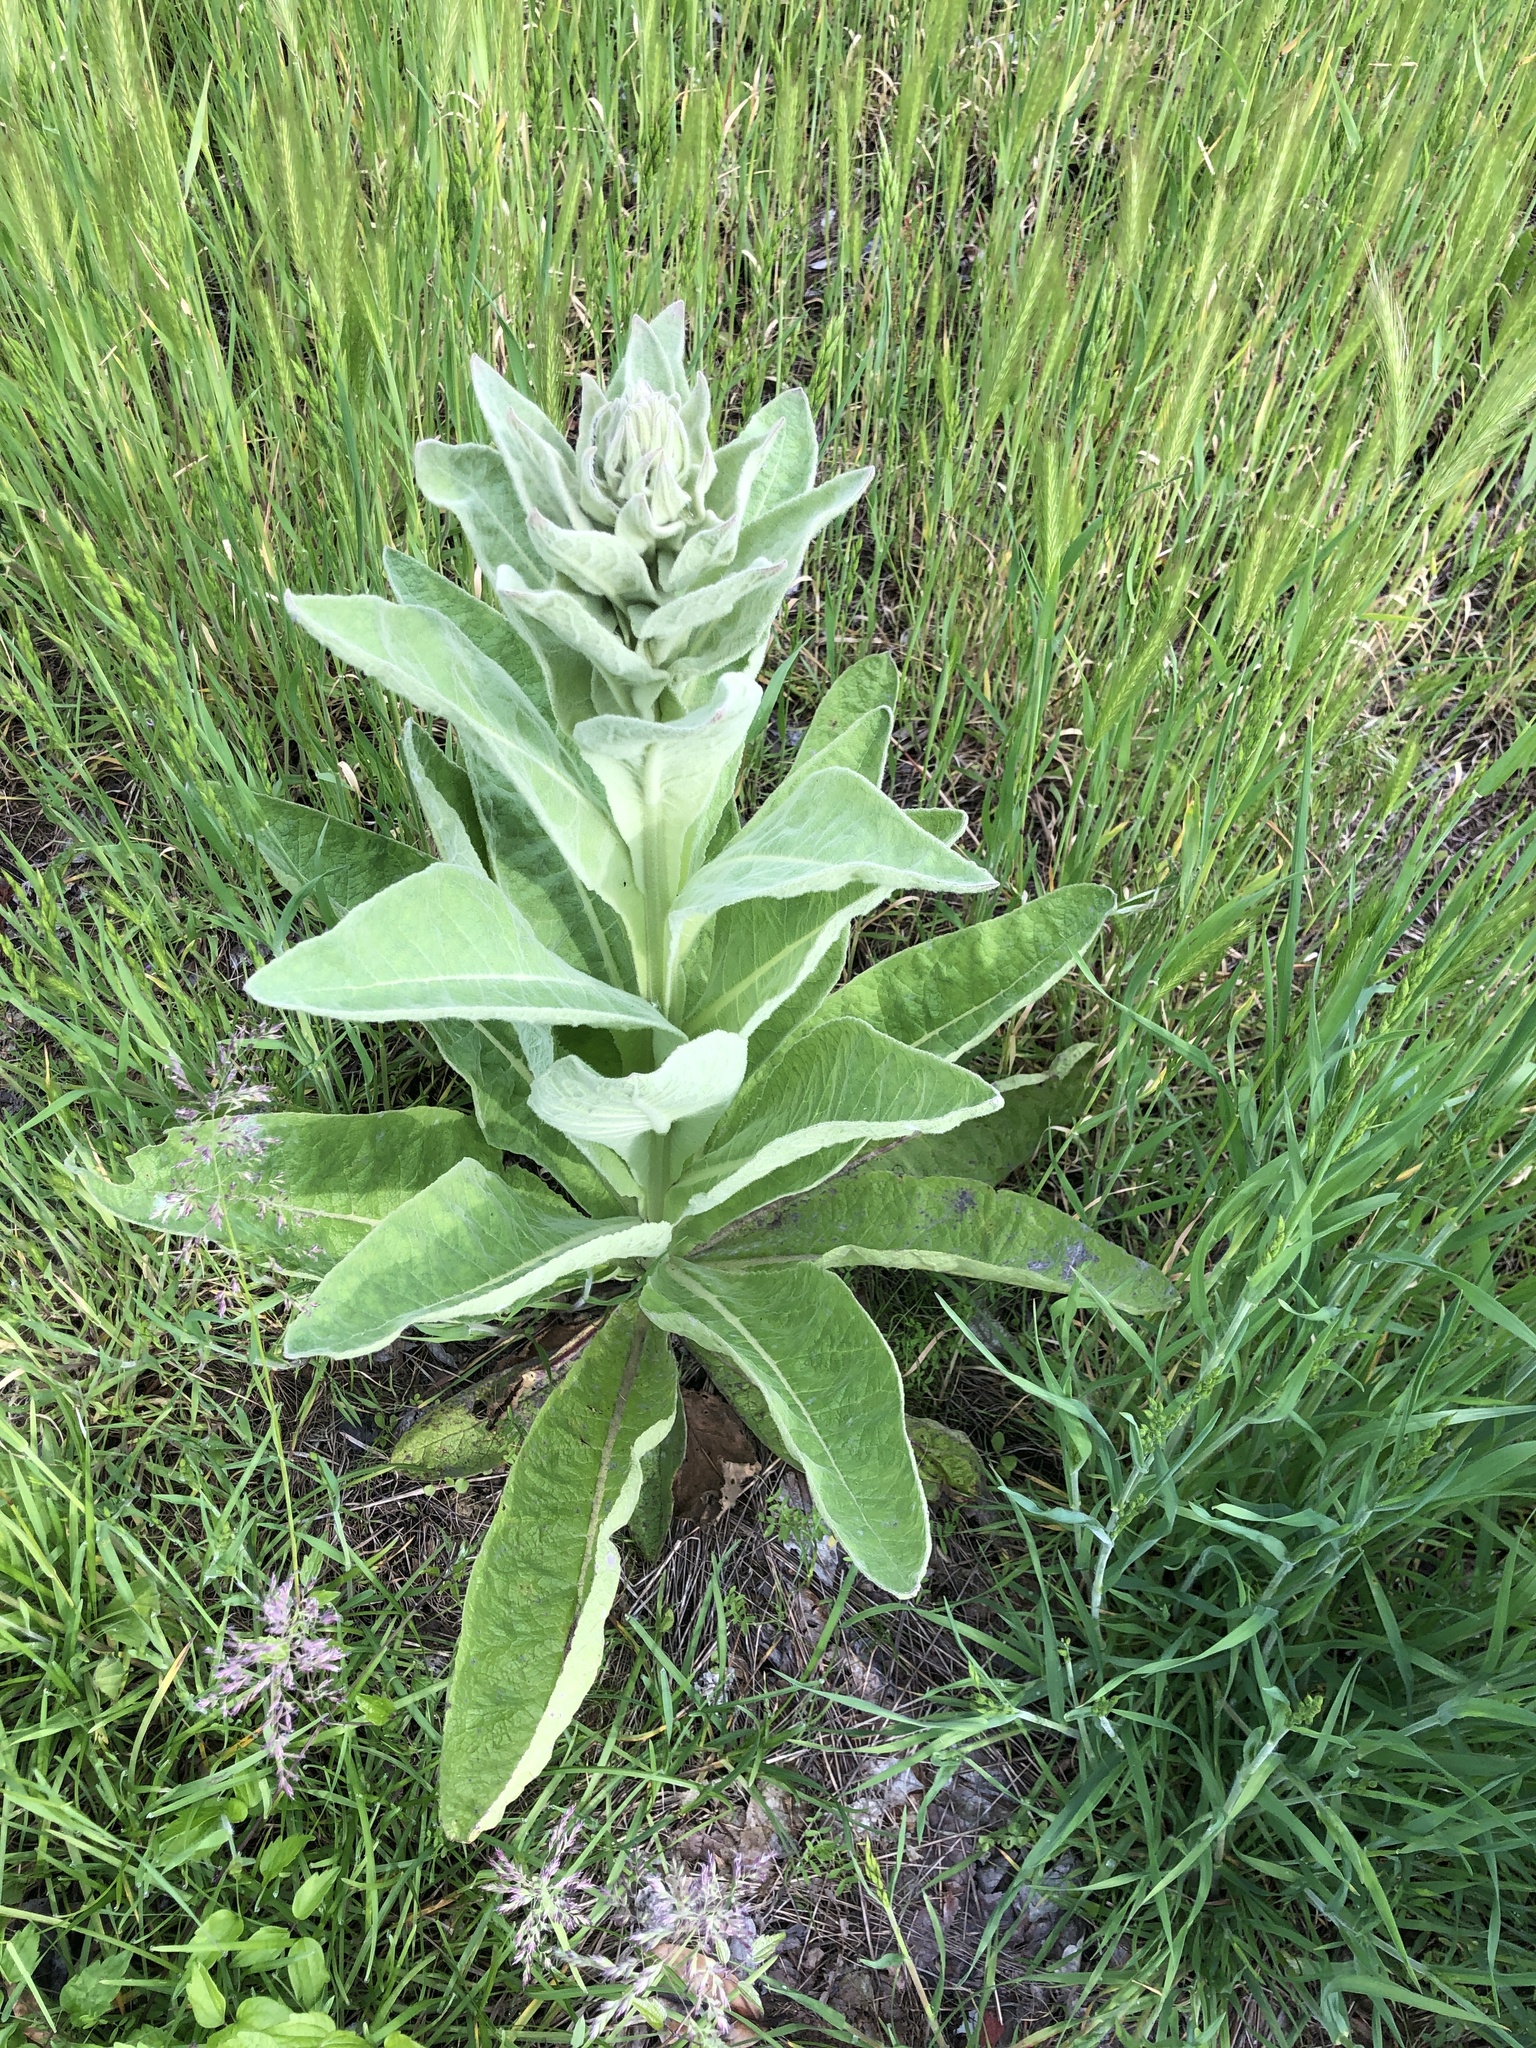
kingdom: Plantae
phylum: Tracheophyta
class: Magnoliopsida
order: Lamiales
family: Scrophulariaceae
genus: Verbascum
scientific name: Verbascum thapsus
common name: Common mullein
